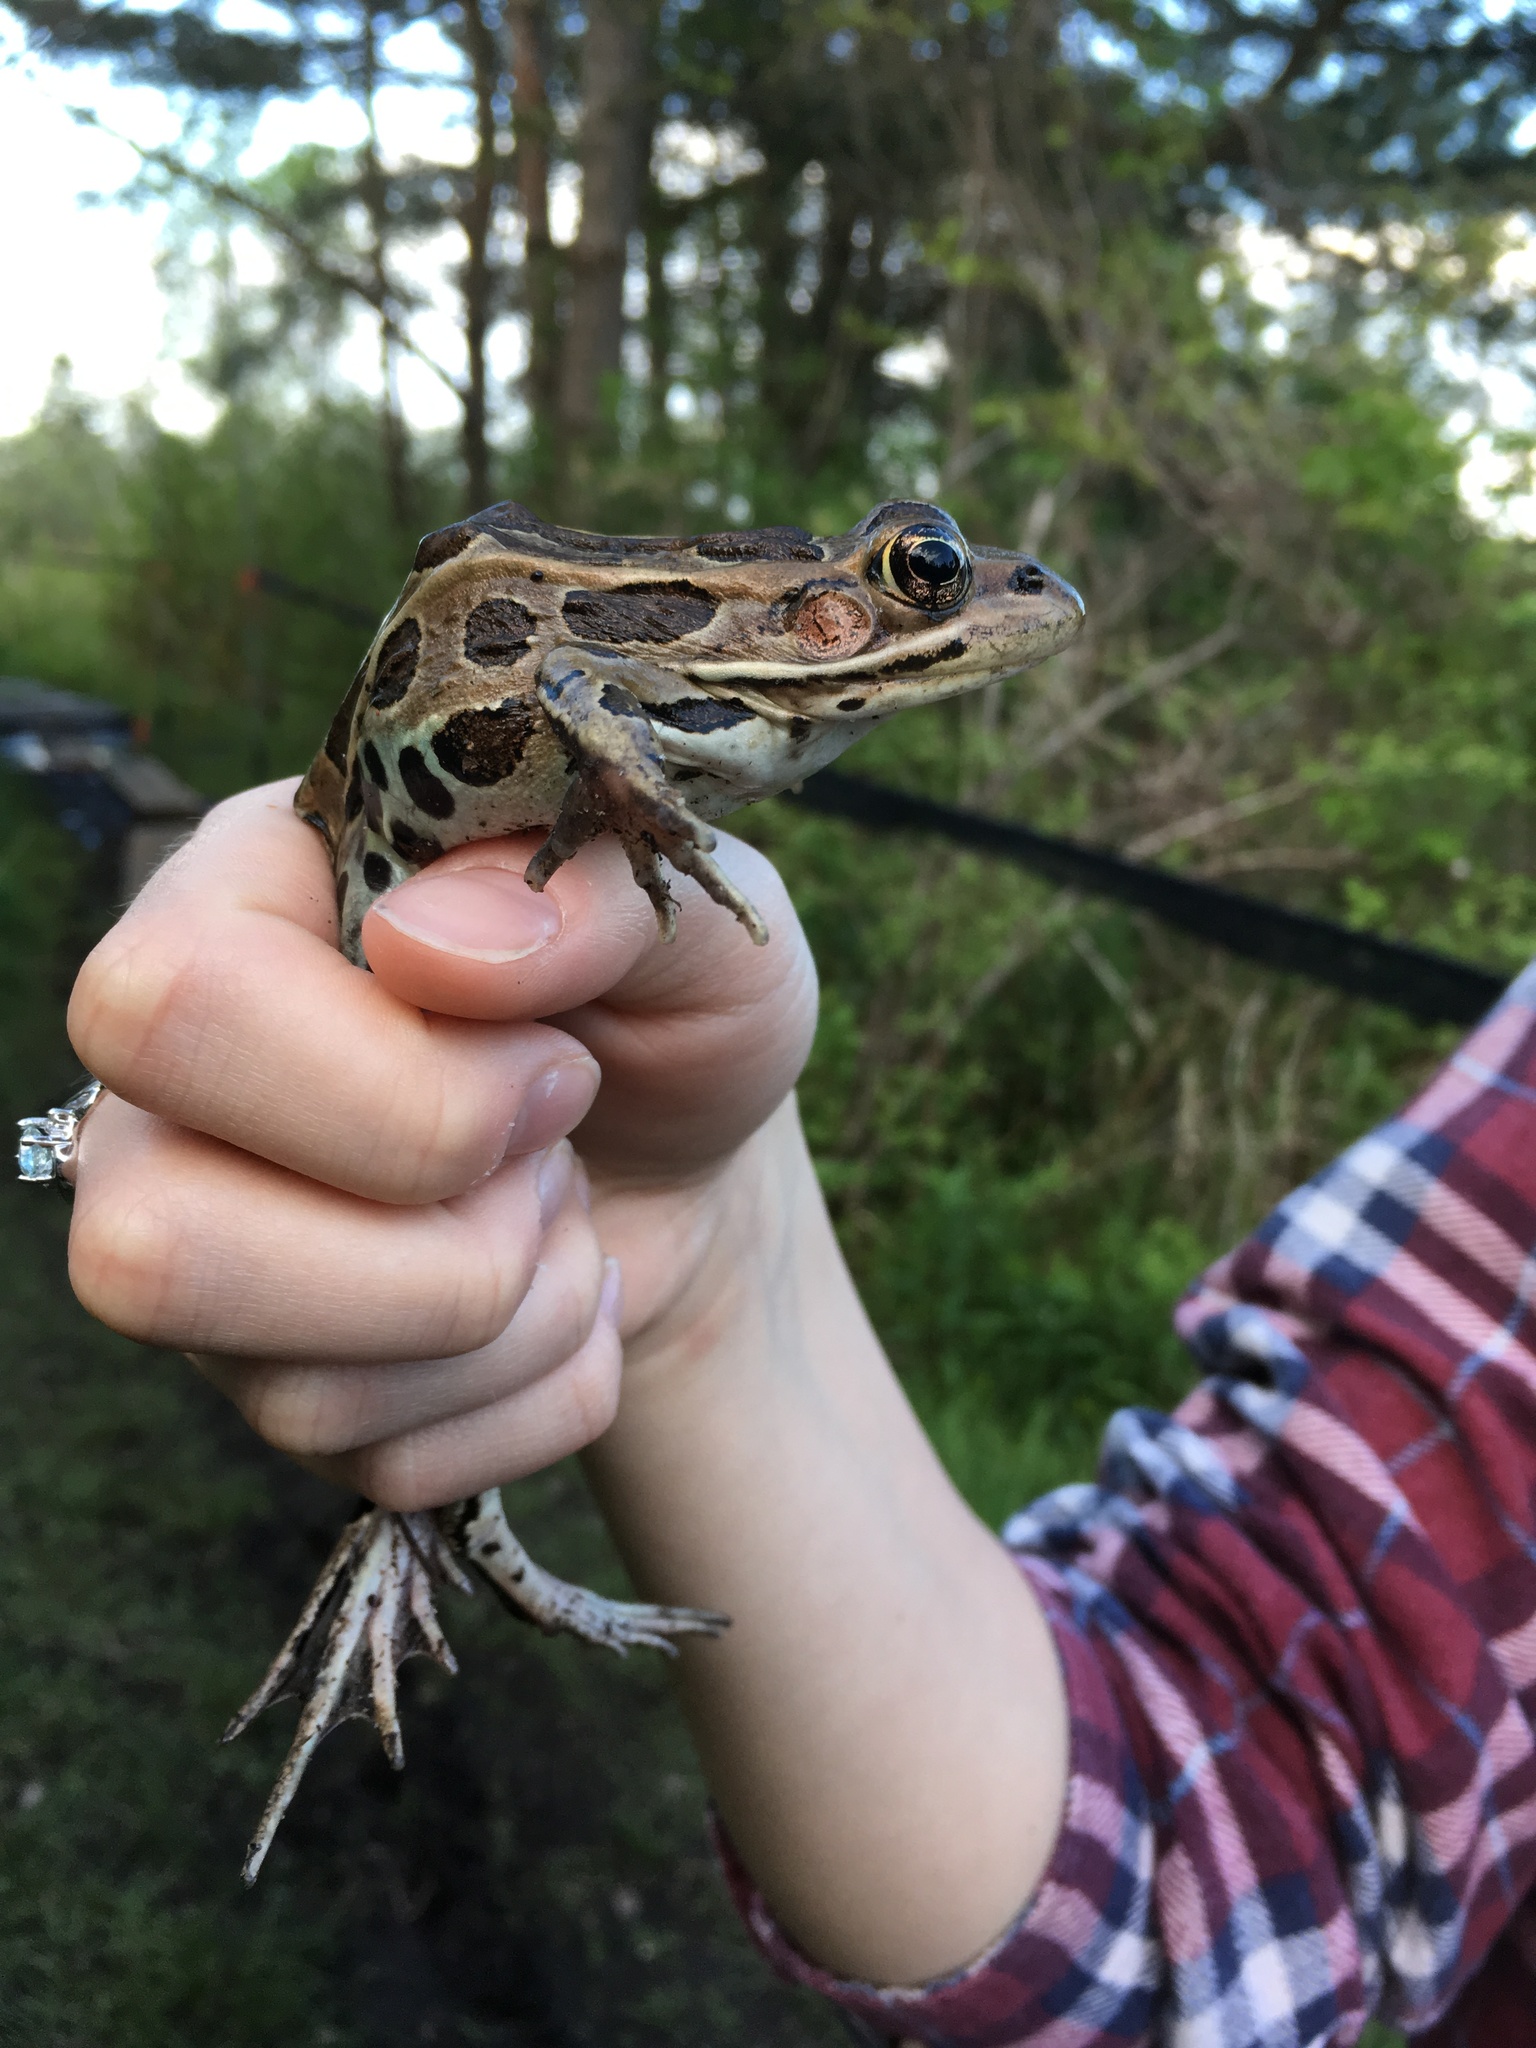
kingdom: Animalia
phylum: Chordata
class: Amphibia
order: Anura
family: Ranidae
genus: Lithobates
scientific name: Lithobates pipiens
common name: Northern leopard frog
